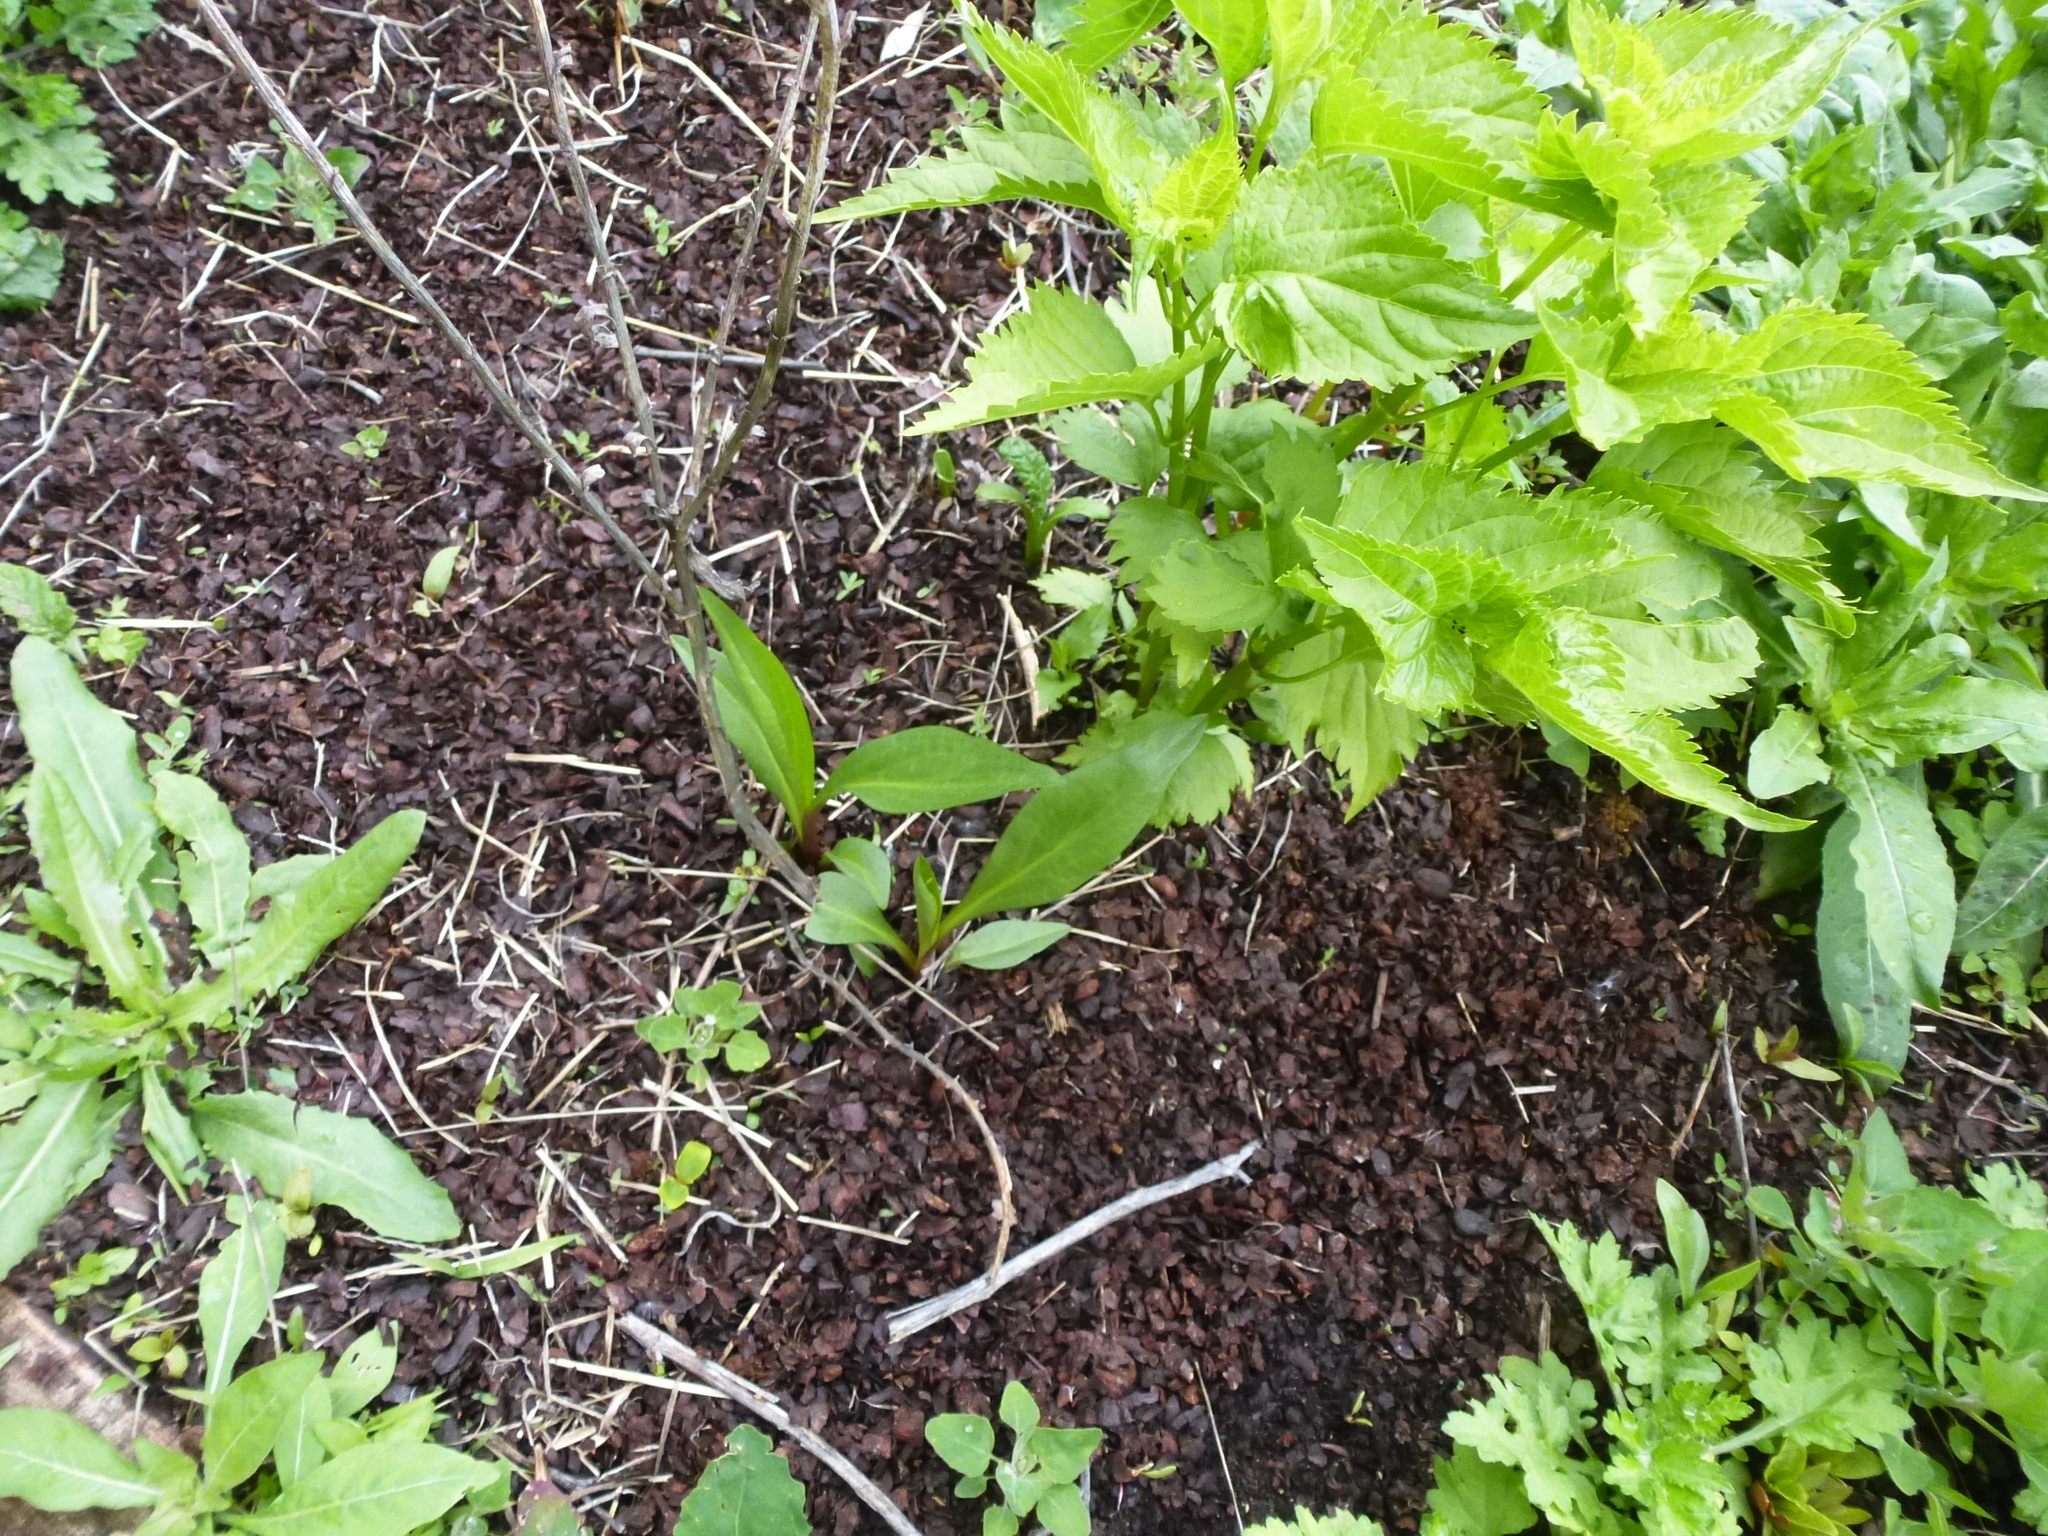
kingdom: Plantae
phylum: Tracheophyta
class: Magnoliopsida
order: Asterales
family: Asteraceae
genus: Solidago
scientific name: Solidago sempervirens
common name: Salt-marsh goldenrod
